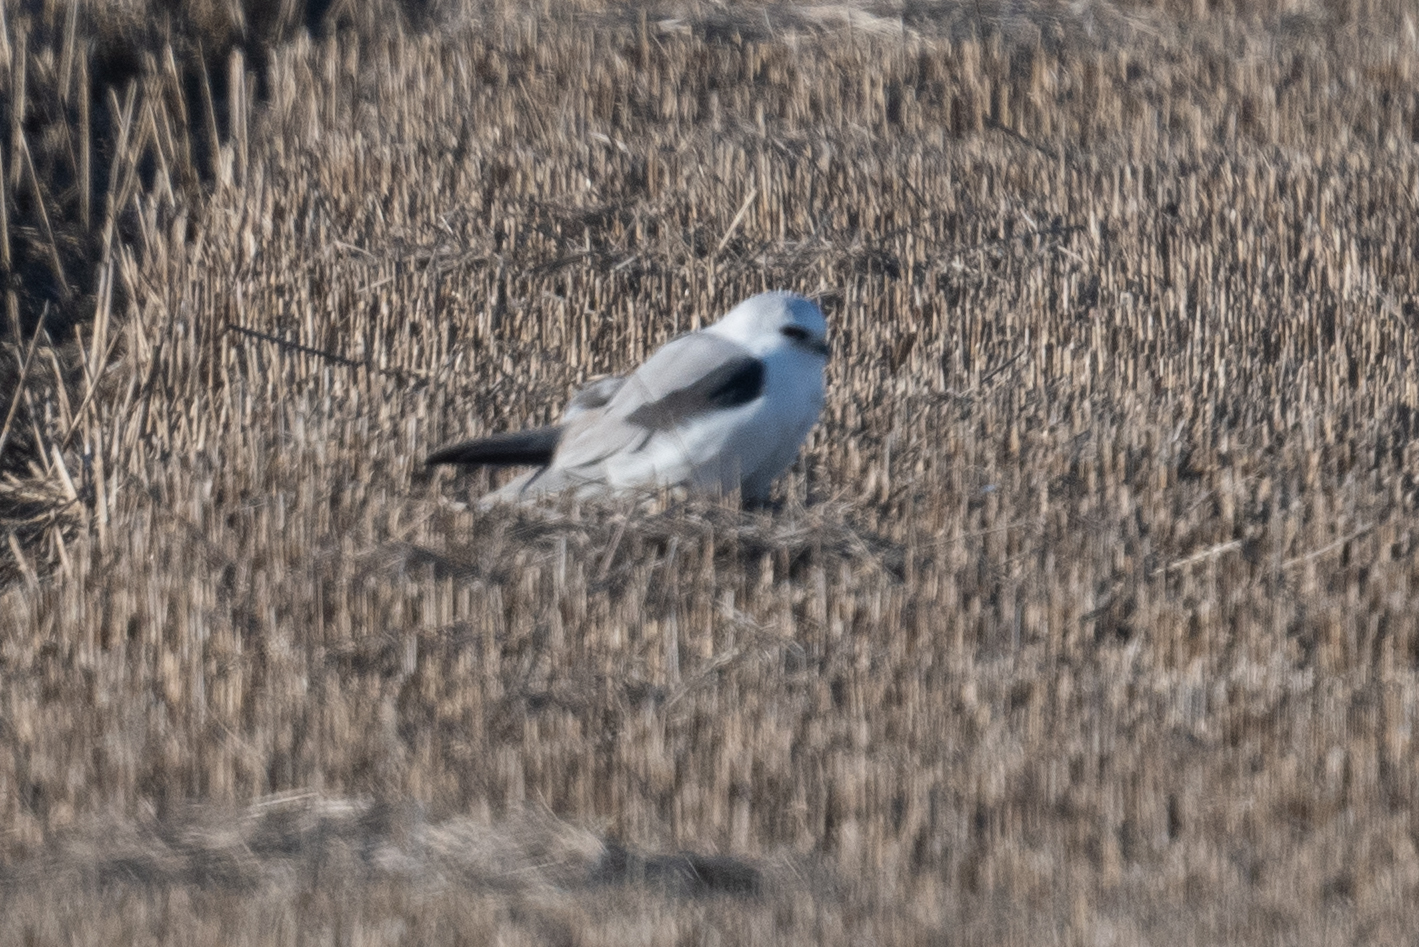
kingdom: Animalia
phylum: Chordata
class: Aves
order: Accipitriformes
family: Accipitridae
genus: Elanus
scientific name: Elanus leucurus
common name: White-tailed kite
